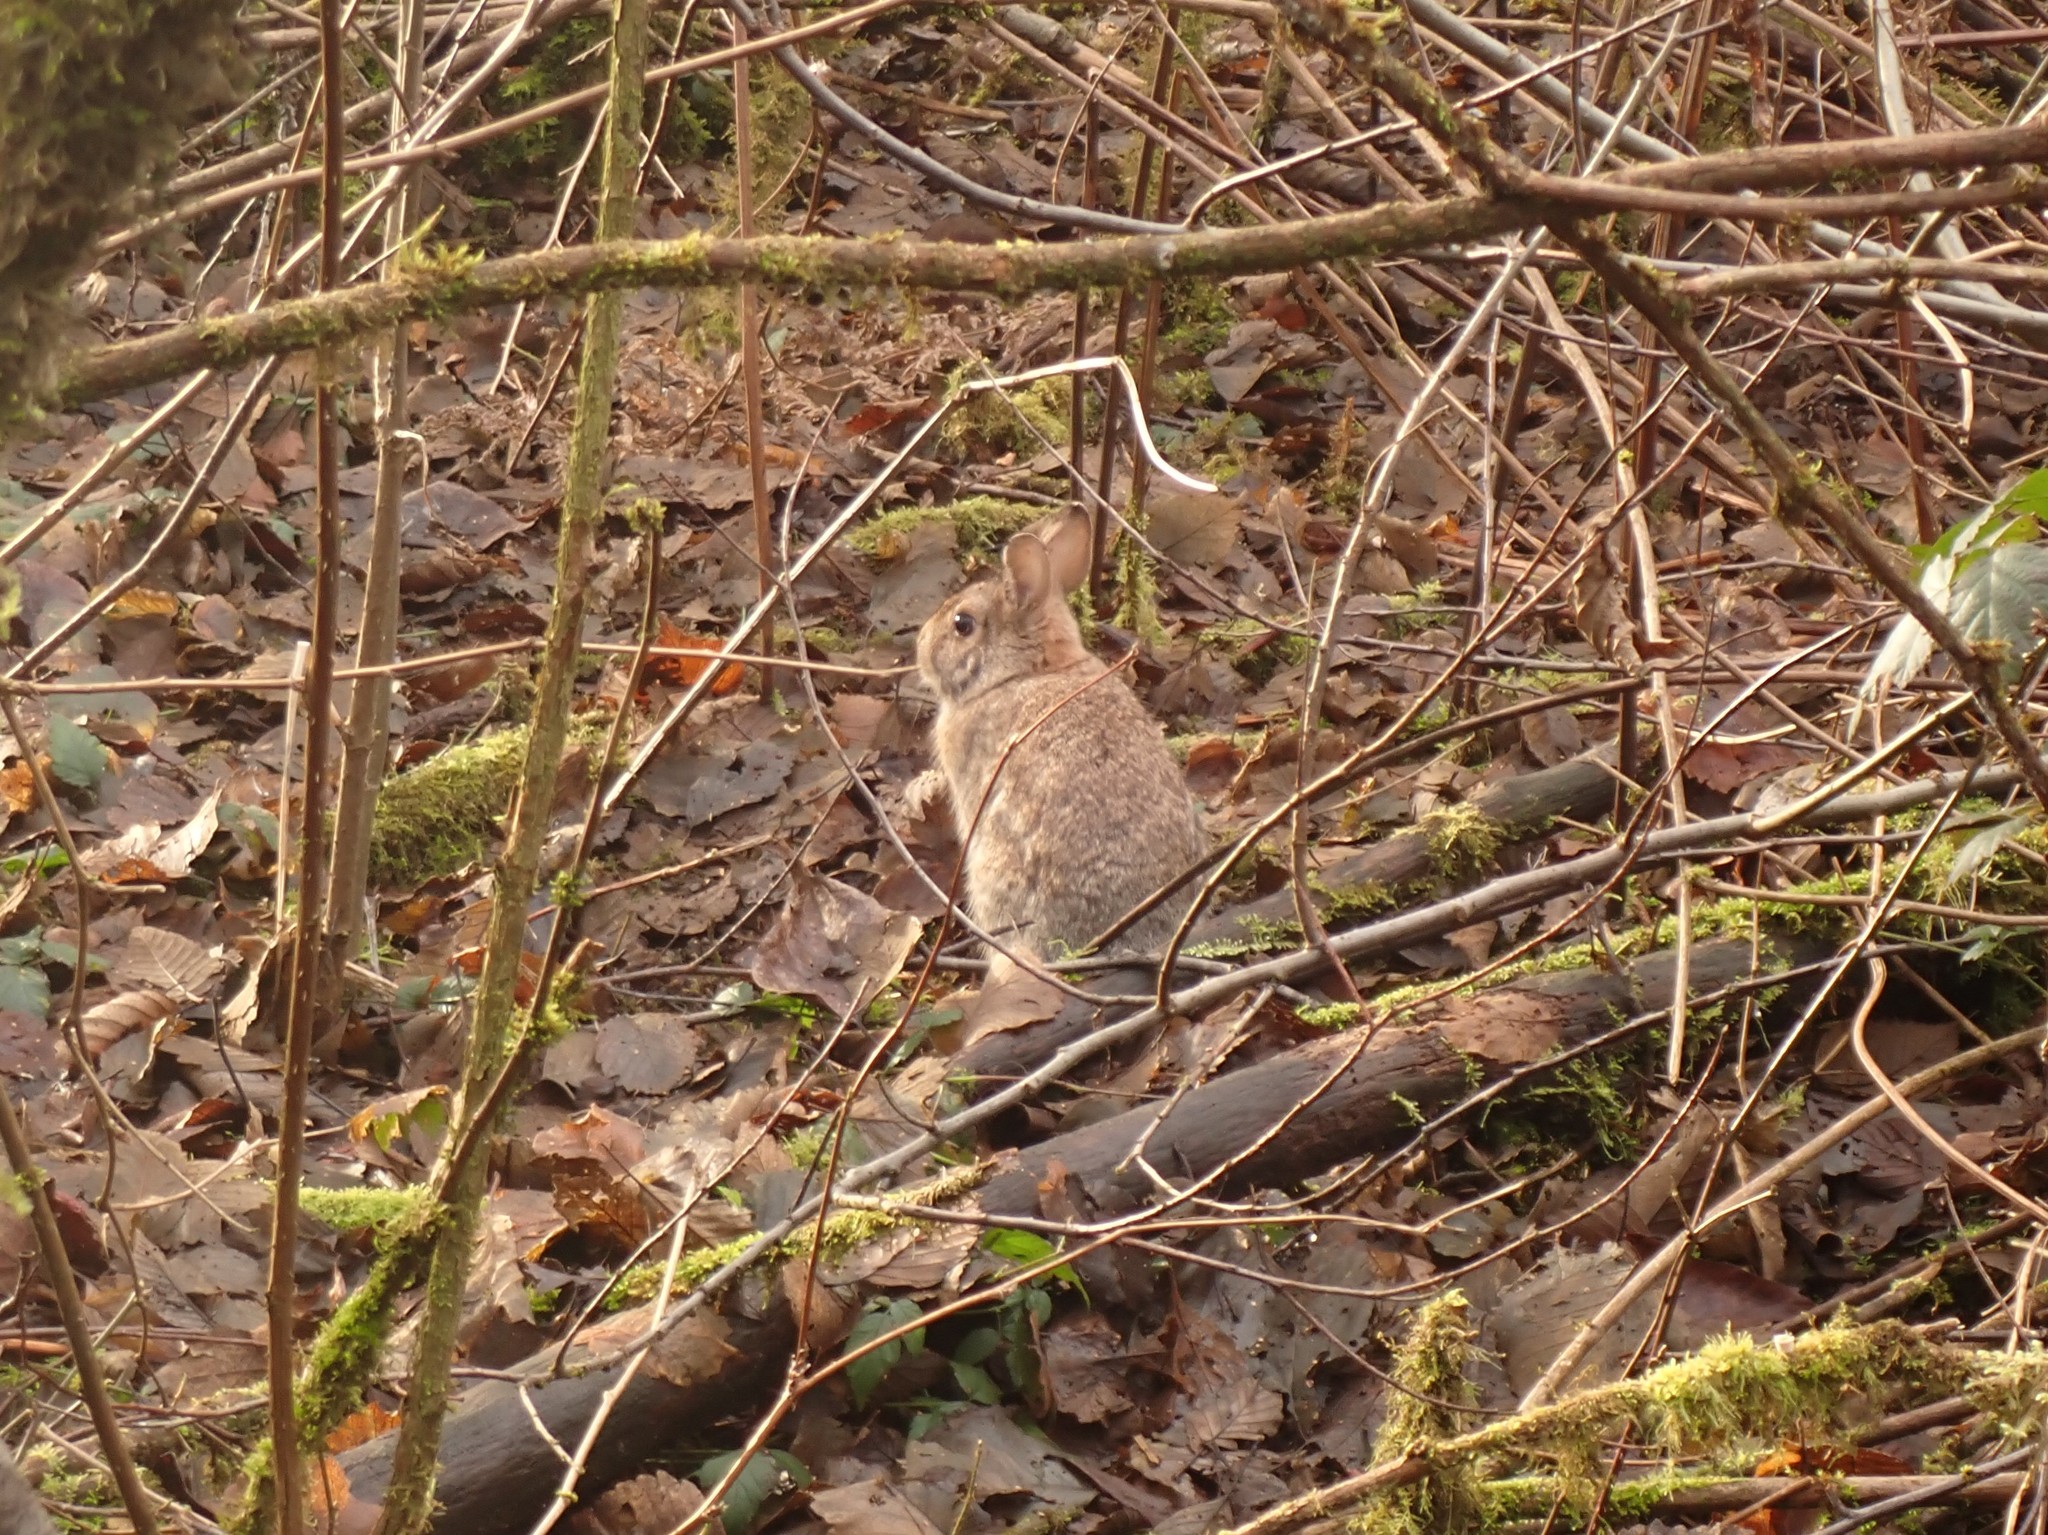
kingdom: Animalia
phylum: Chordata
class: Mammalia
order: Lagomorpha
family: Leporidae
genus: Sylvilagus
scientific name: Sylvilagus floridanus
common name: Eastern cottontail
